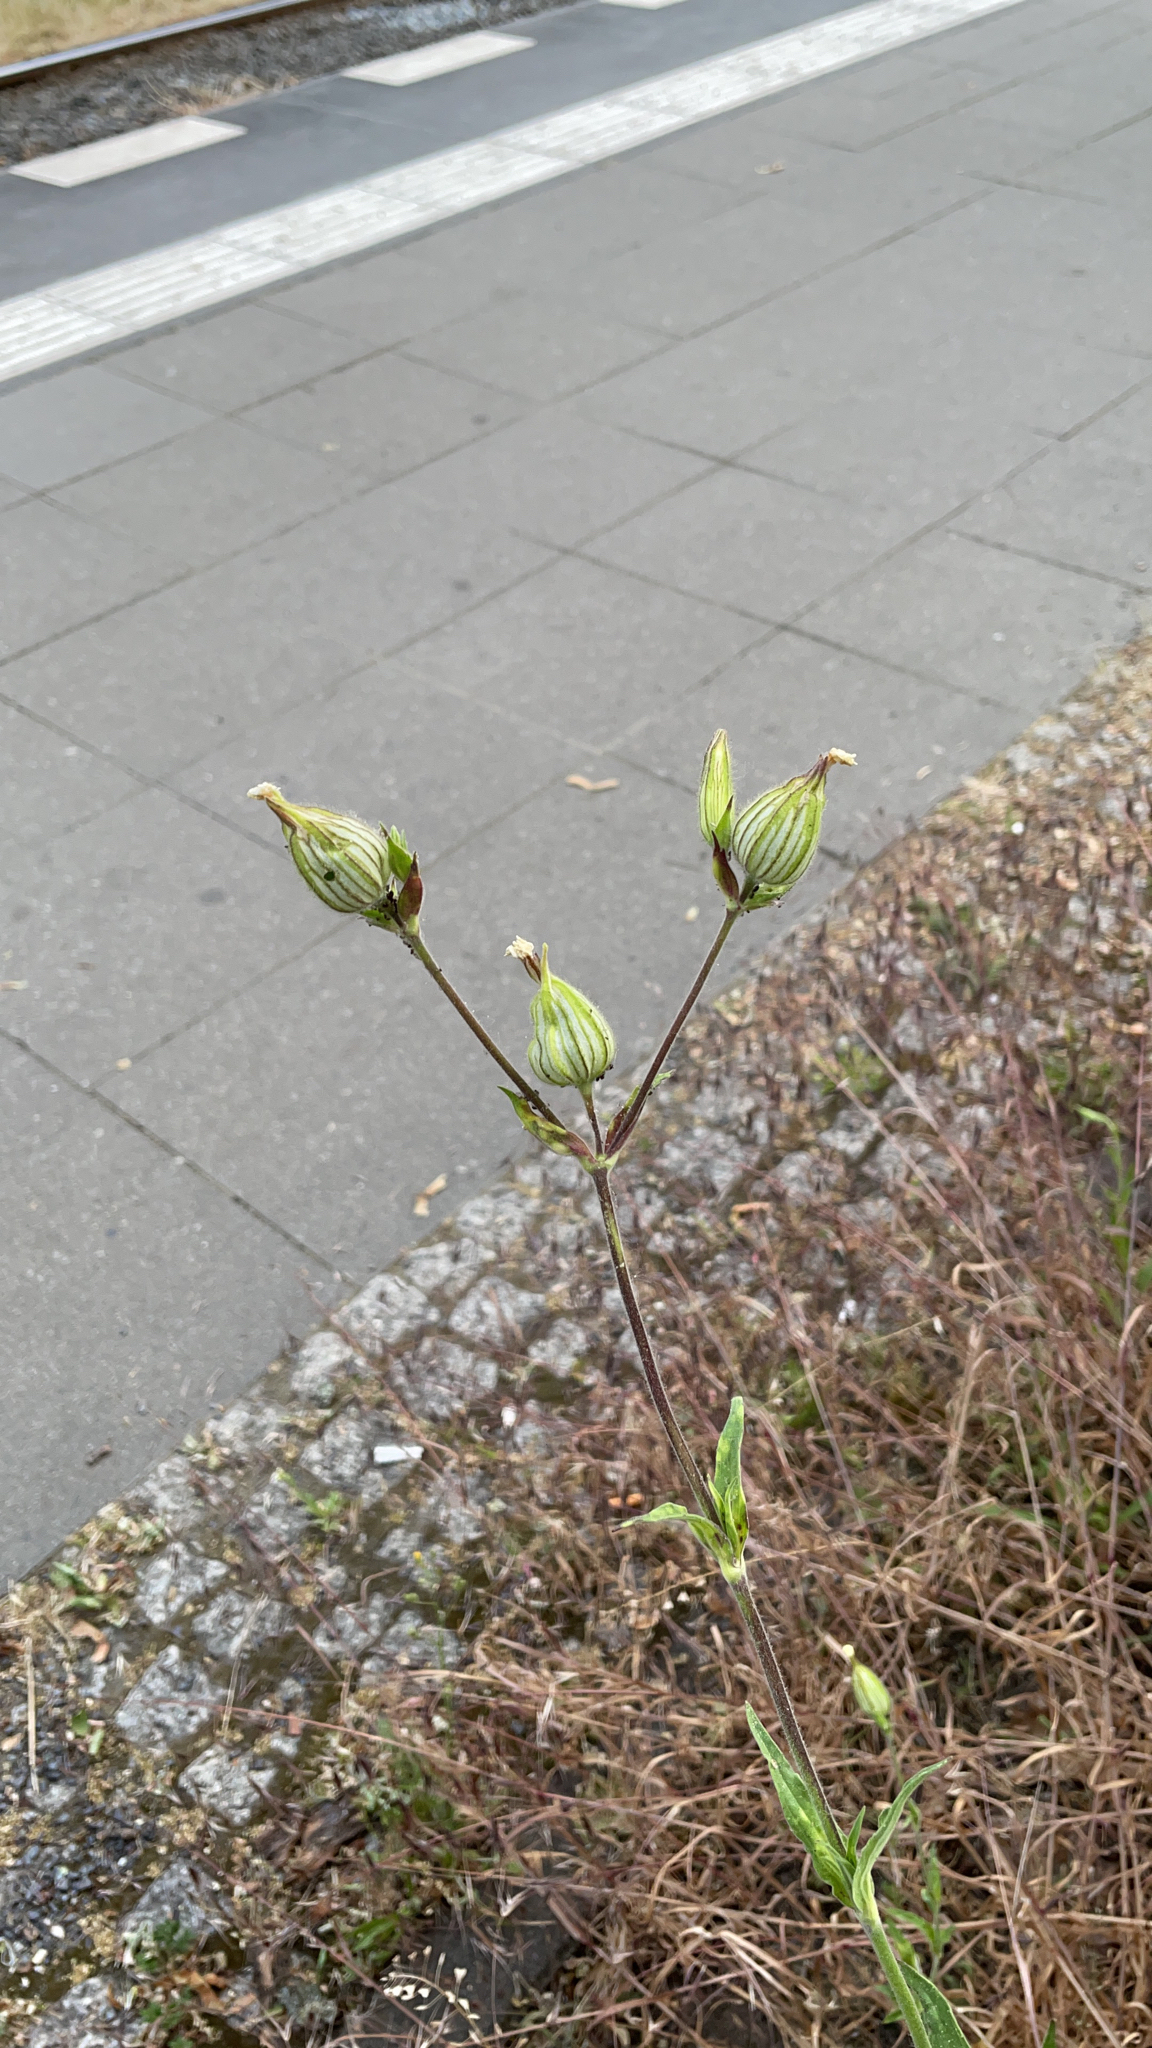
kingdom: Plantae
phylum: Tracheophyta
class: Magnoliopsida
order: Caryophyllales
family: Caryophyllaceae
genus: Silene
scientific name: Silene latifolia
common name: White campion
